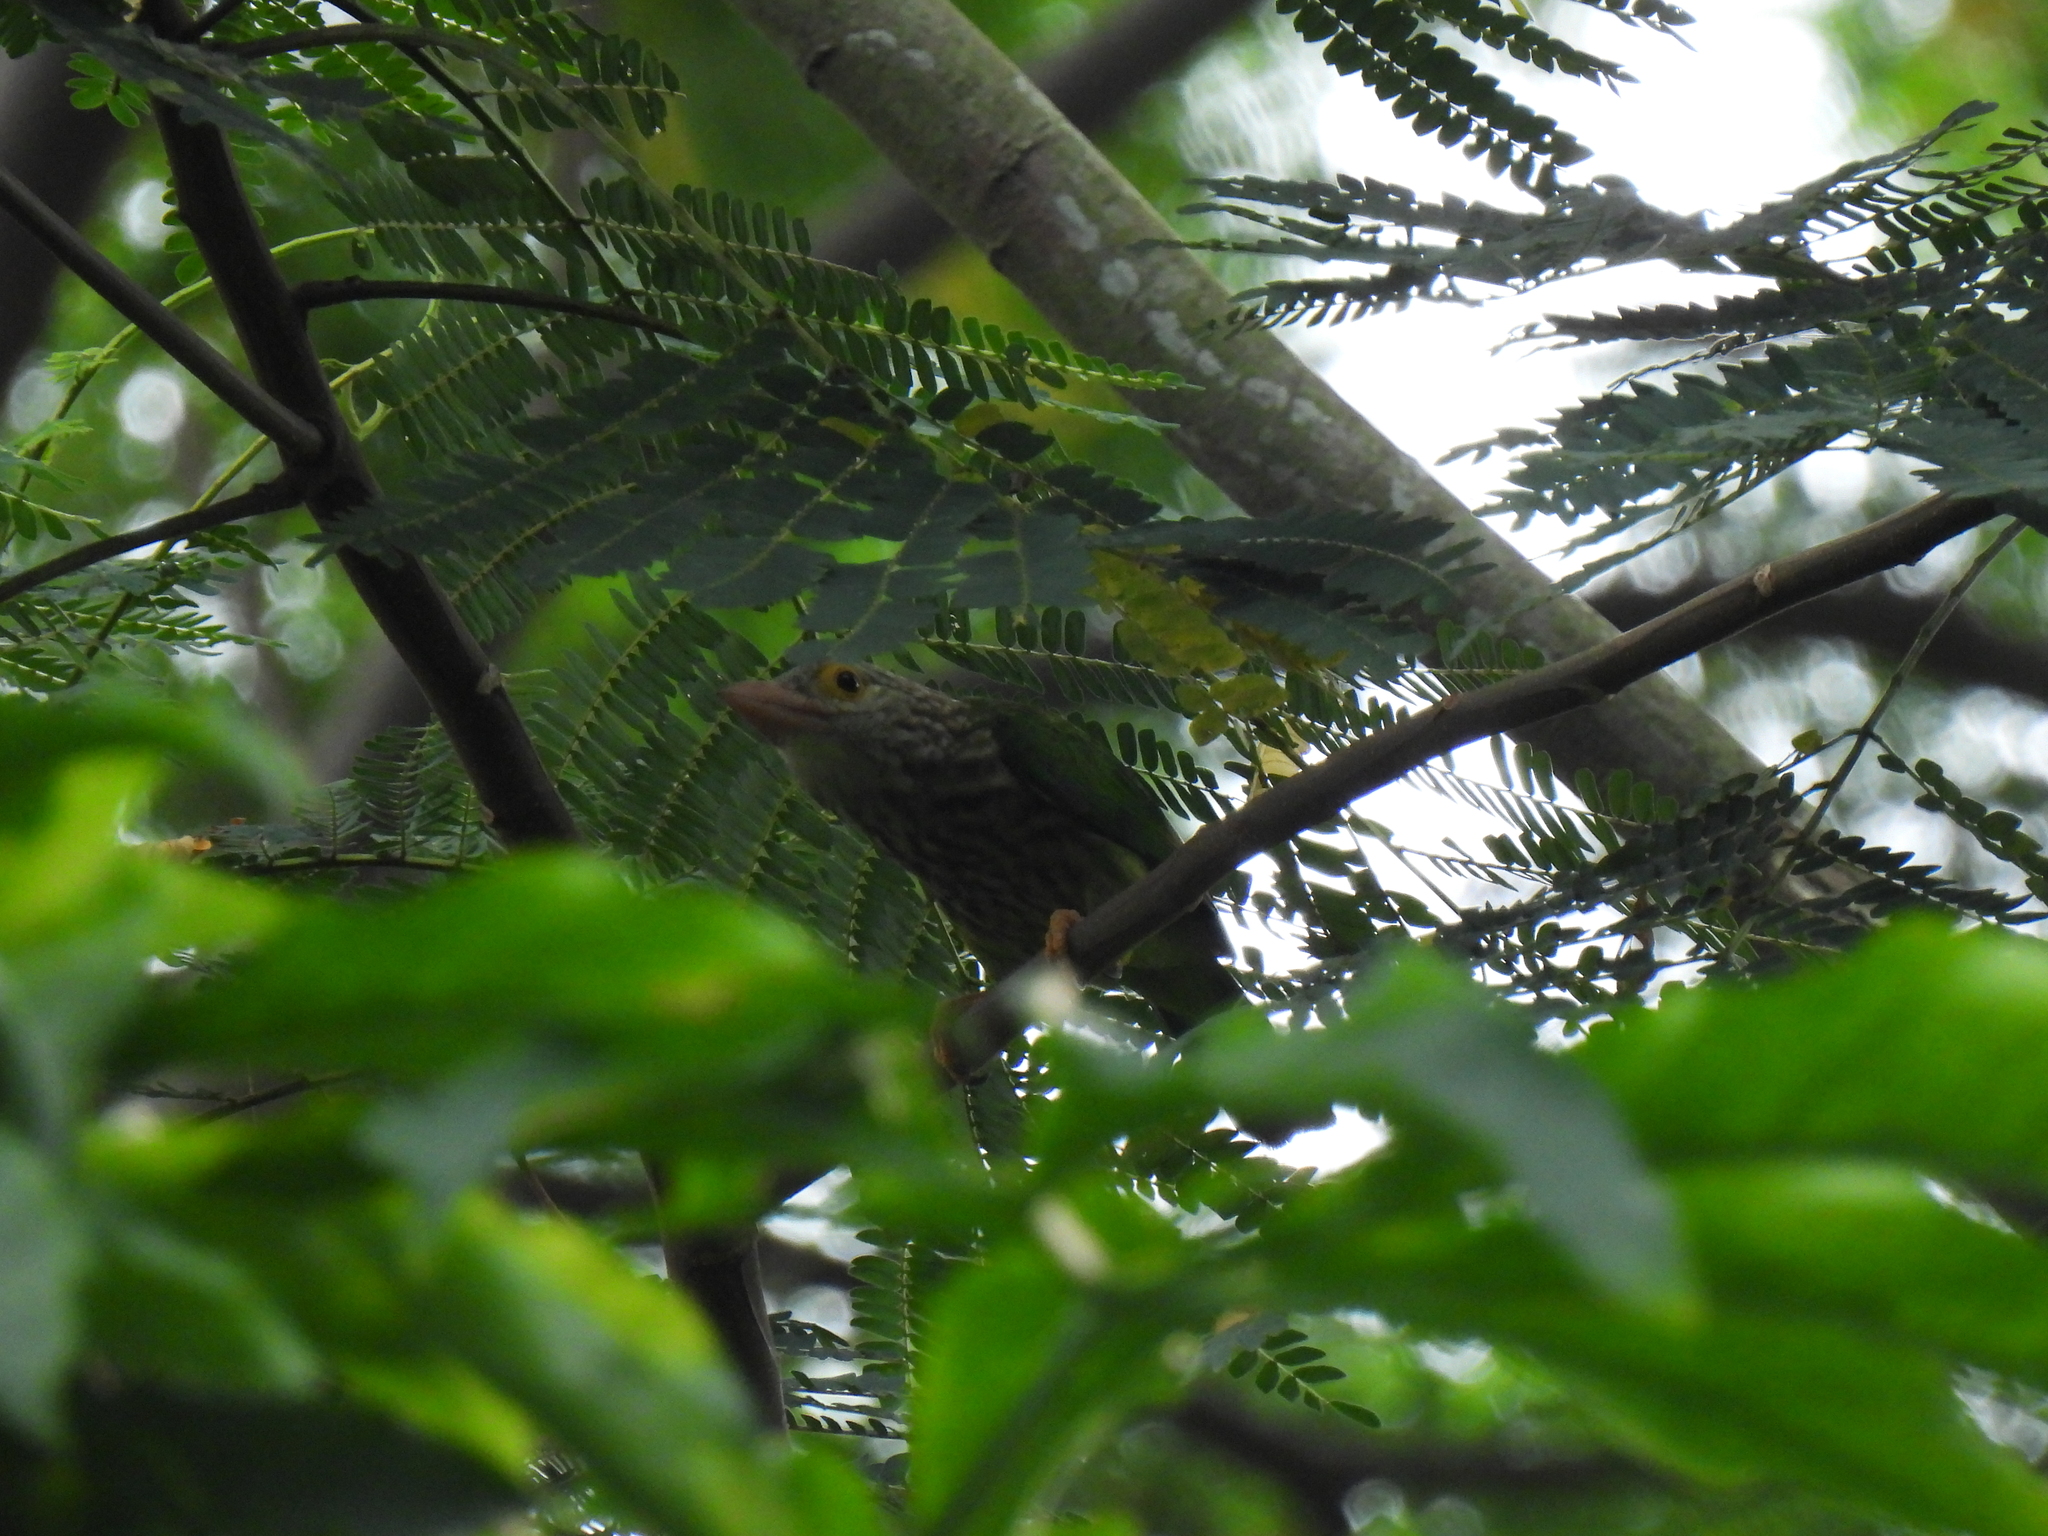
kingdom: Animalia
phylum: Chordata
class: Aves
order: Piciformes
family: Megalaimidae
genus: Psilopogon
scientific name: Psilopogon lineatus
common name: Lineated barbet
